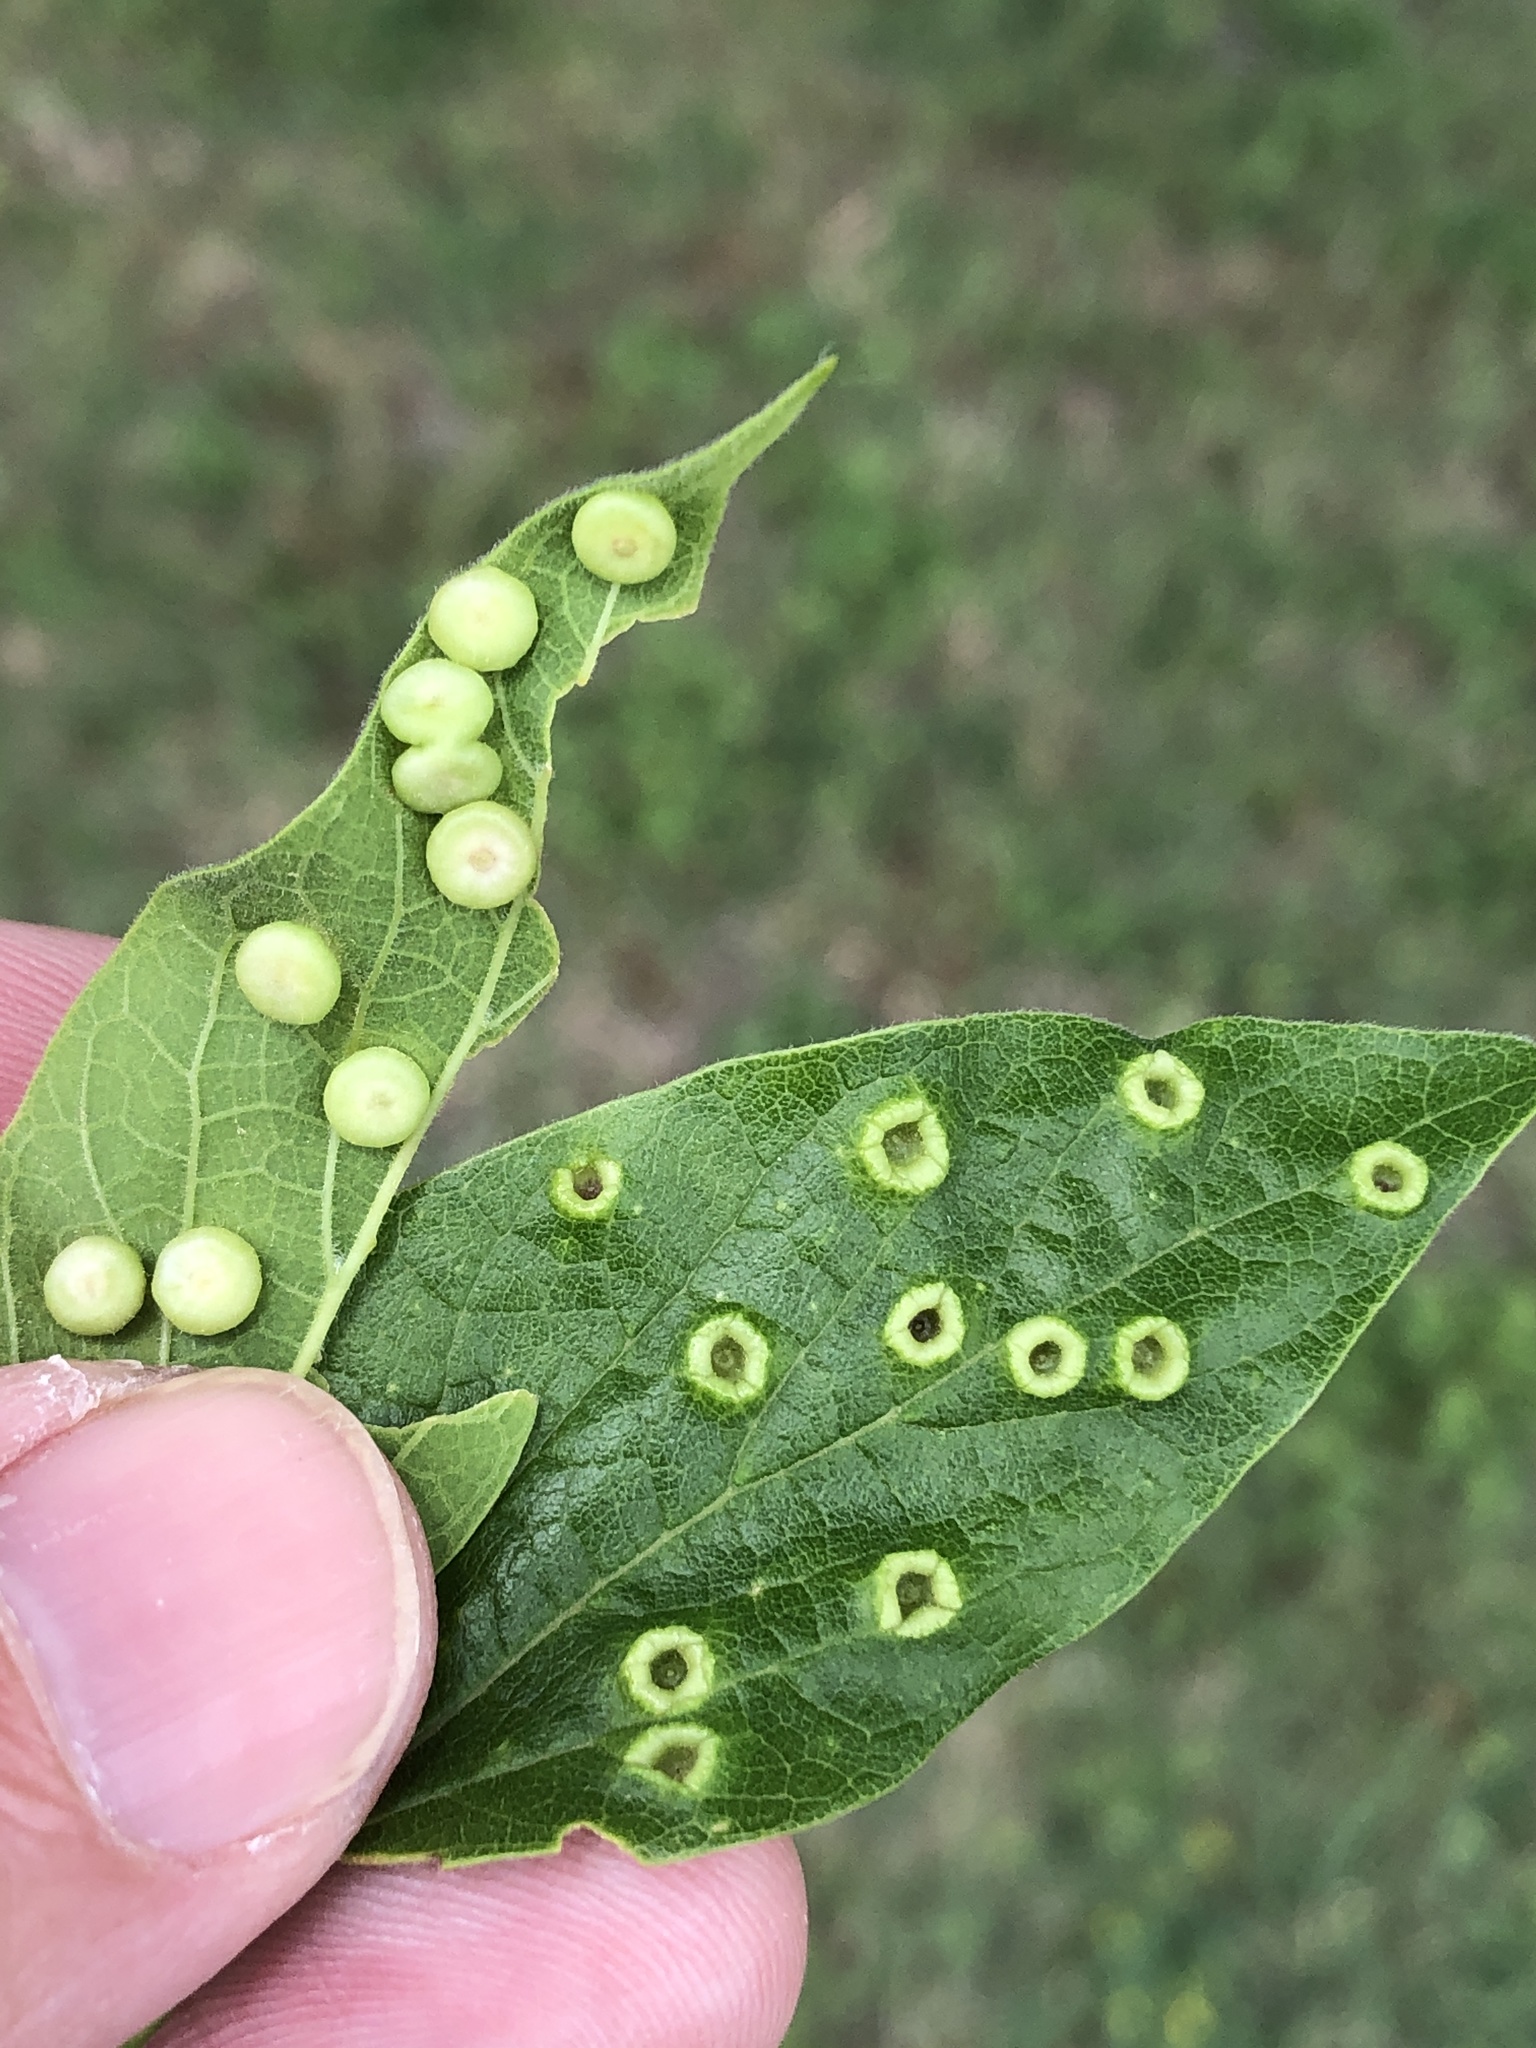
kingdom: Animalia
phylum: Arthropoda
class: Insecta
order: Hemiptera
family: Aphalaridae
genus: Pachypsylla
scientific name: Pachypsylla celtidismamma
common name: Hackberry nipplegall psyllid
